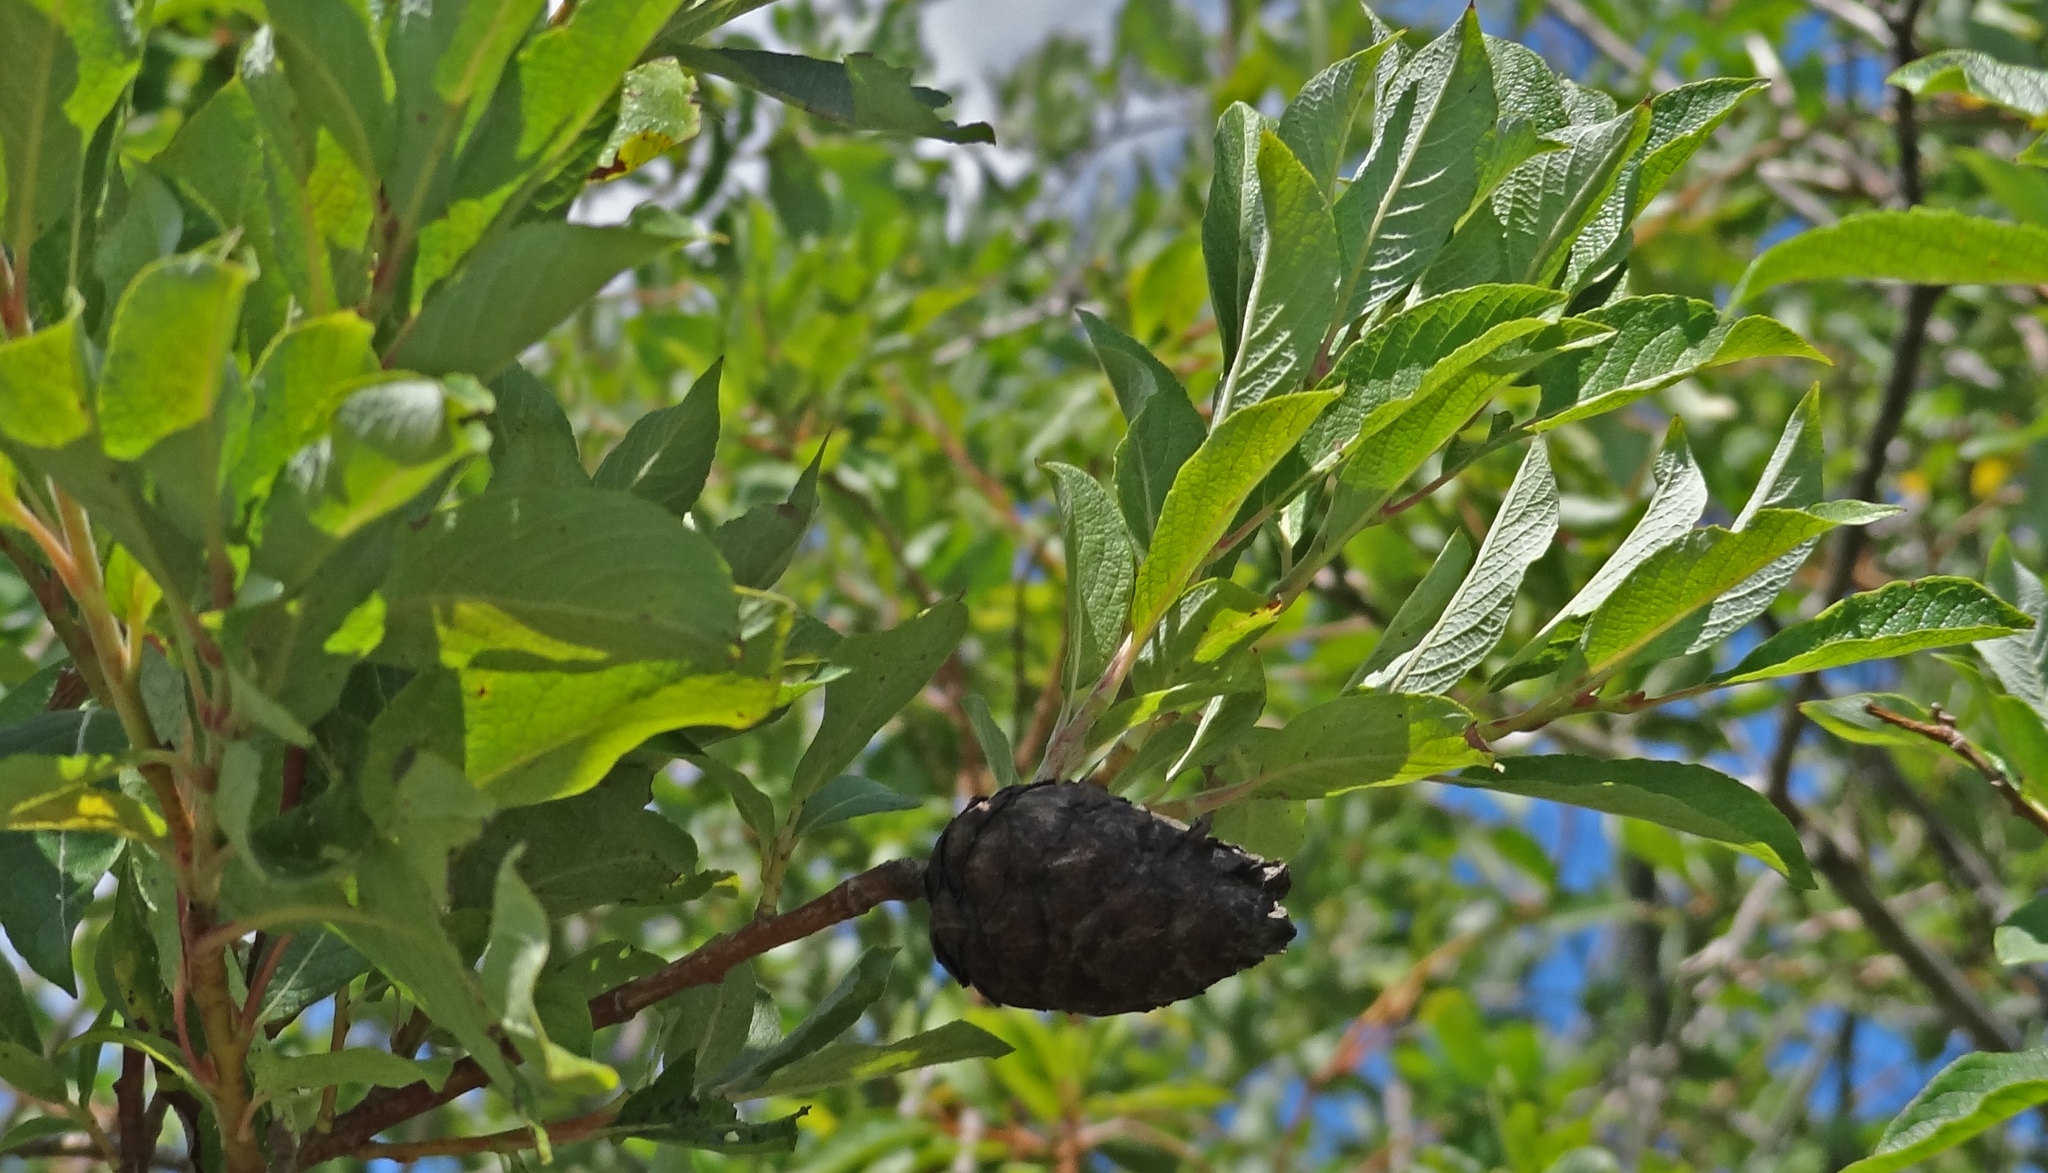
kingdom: Animalia
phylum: Arthropoda
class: Insecta
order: Diptera
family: Cecidomyiidae
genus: Rabdophaga
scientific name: Rabdophaga strobiloides
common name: Willow pinecone gall midge
